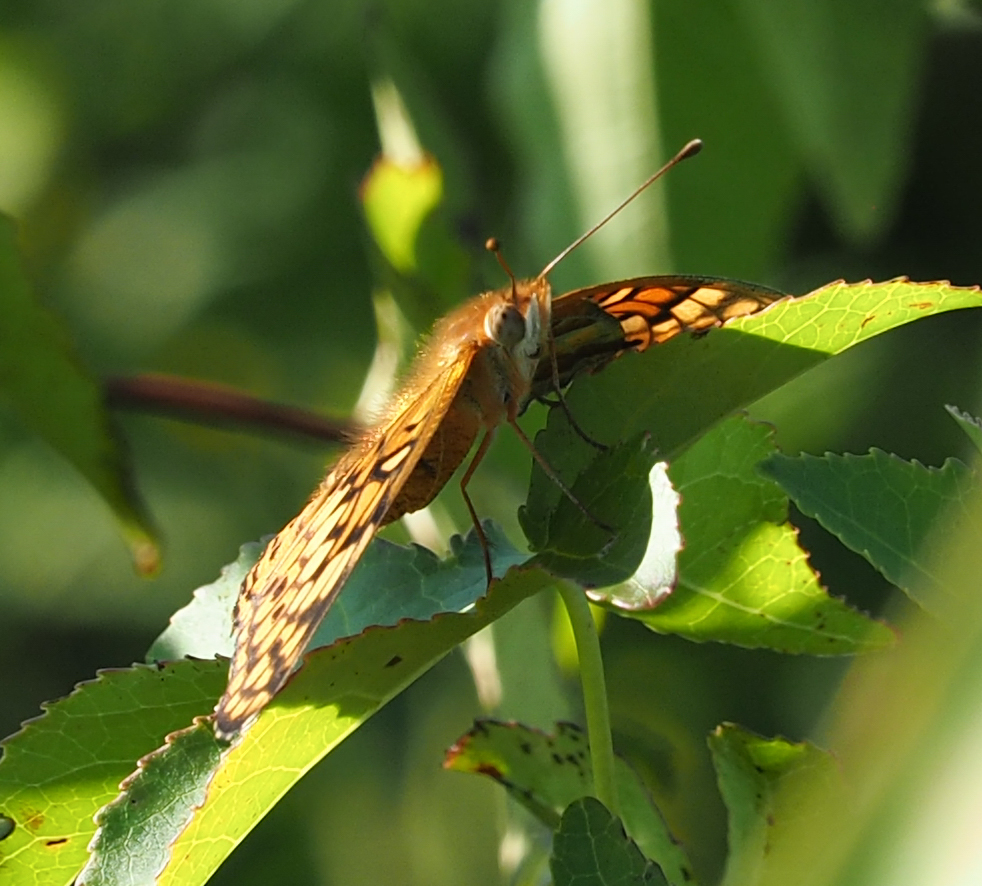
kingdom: Animalia
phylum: Arthropoda
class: Insecta
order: Lepidoptera
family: Nymphalidae
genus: Euptoieta
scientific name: Euptoieta claudia
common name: Variegated fritillary
